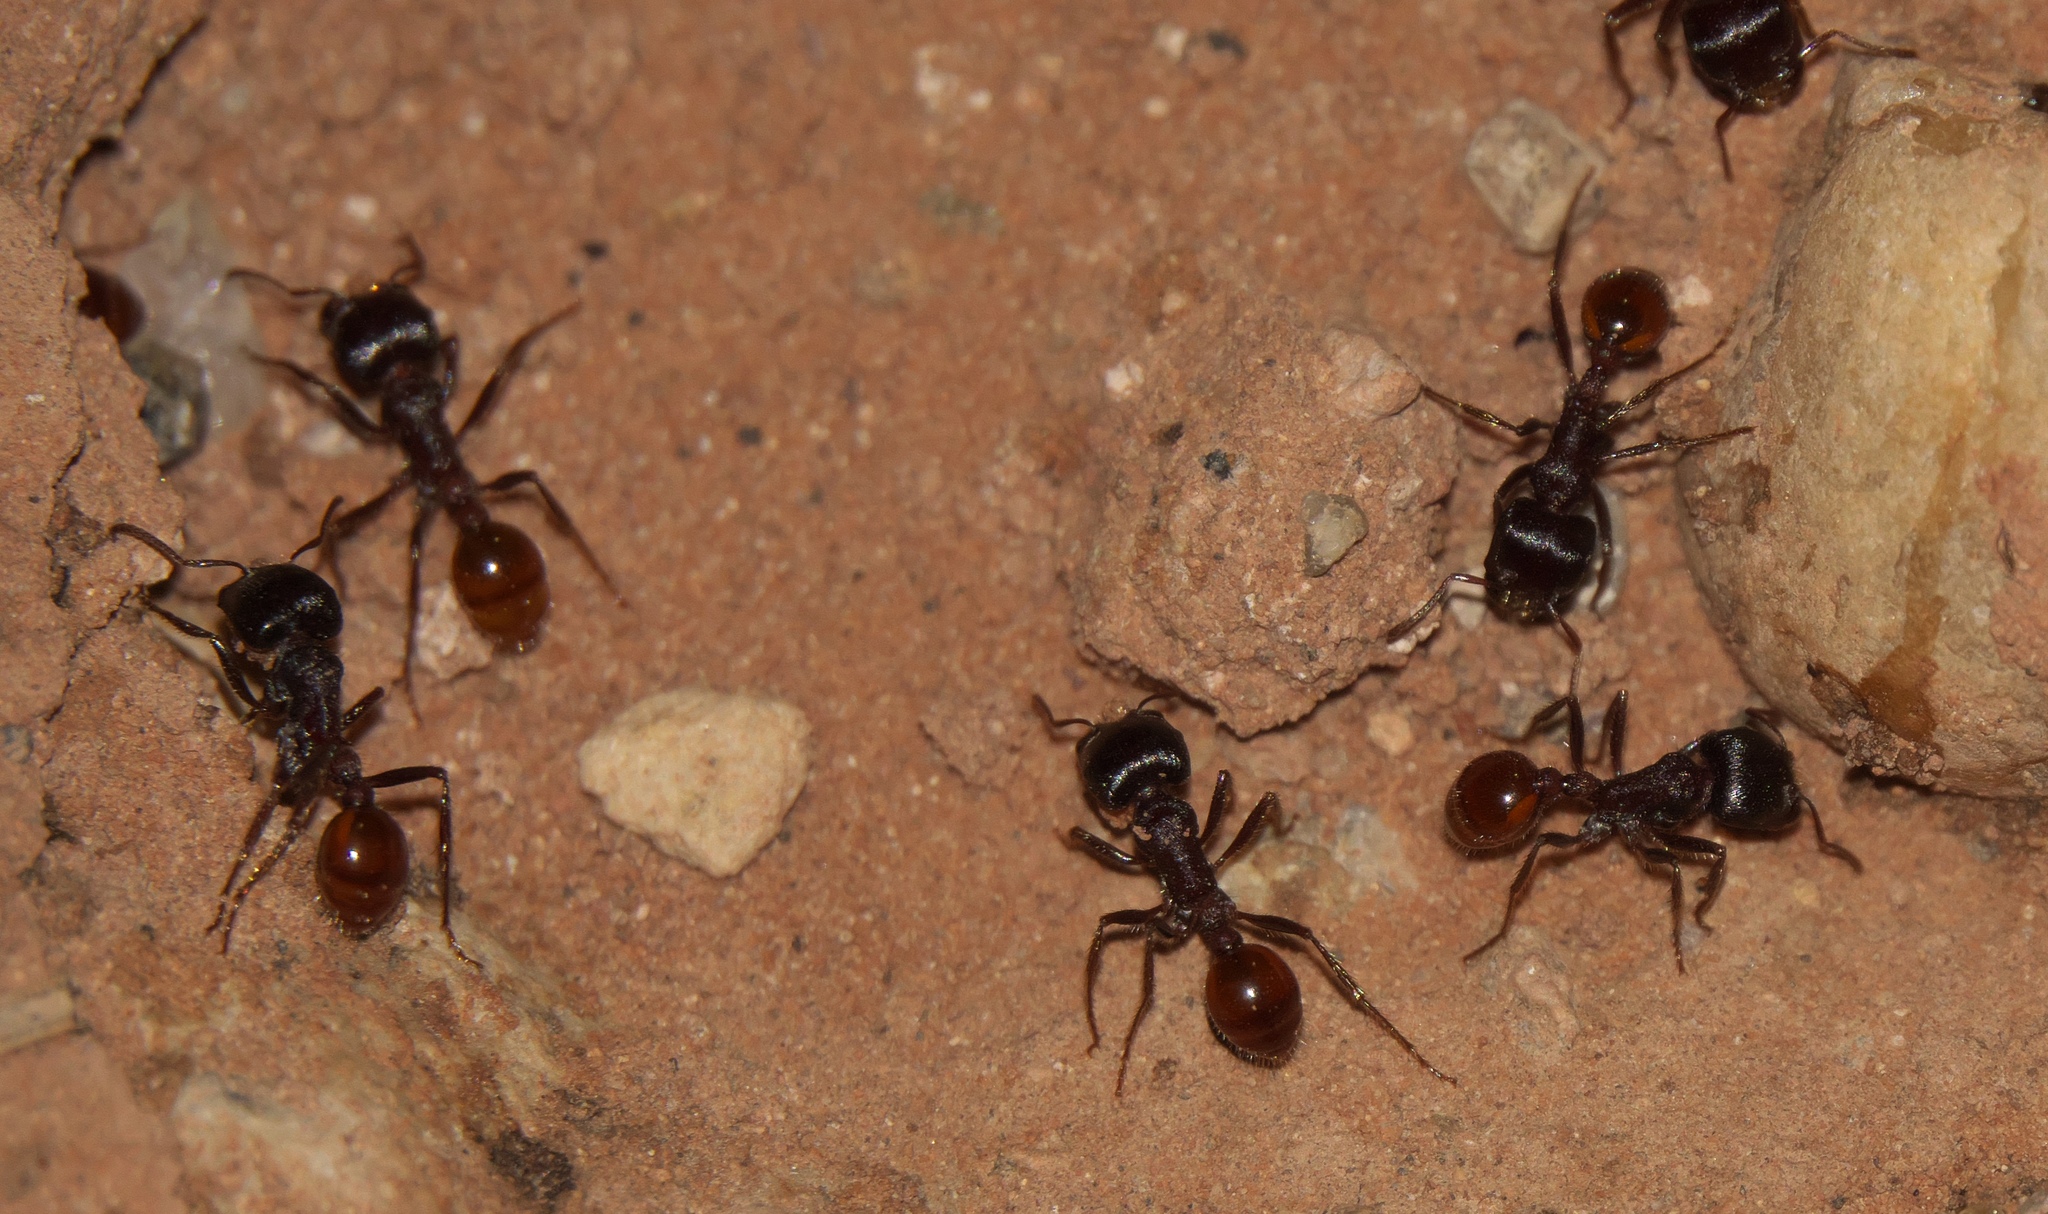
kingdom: Animalia
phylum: Arthropoda
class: Insecta
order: Hymenoptera
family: Formicidae
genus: Pogonomyrmex
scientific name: Pogonomyrmex rugosus
